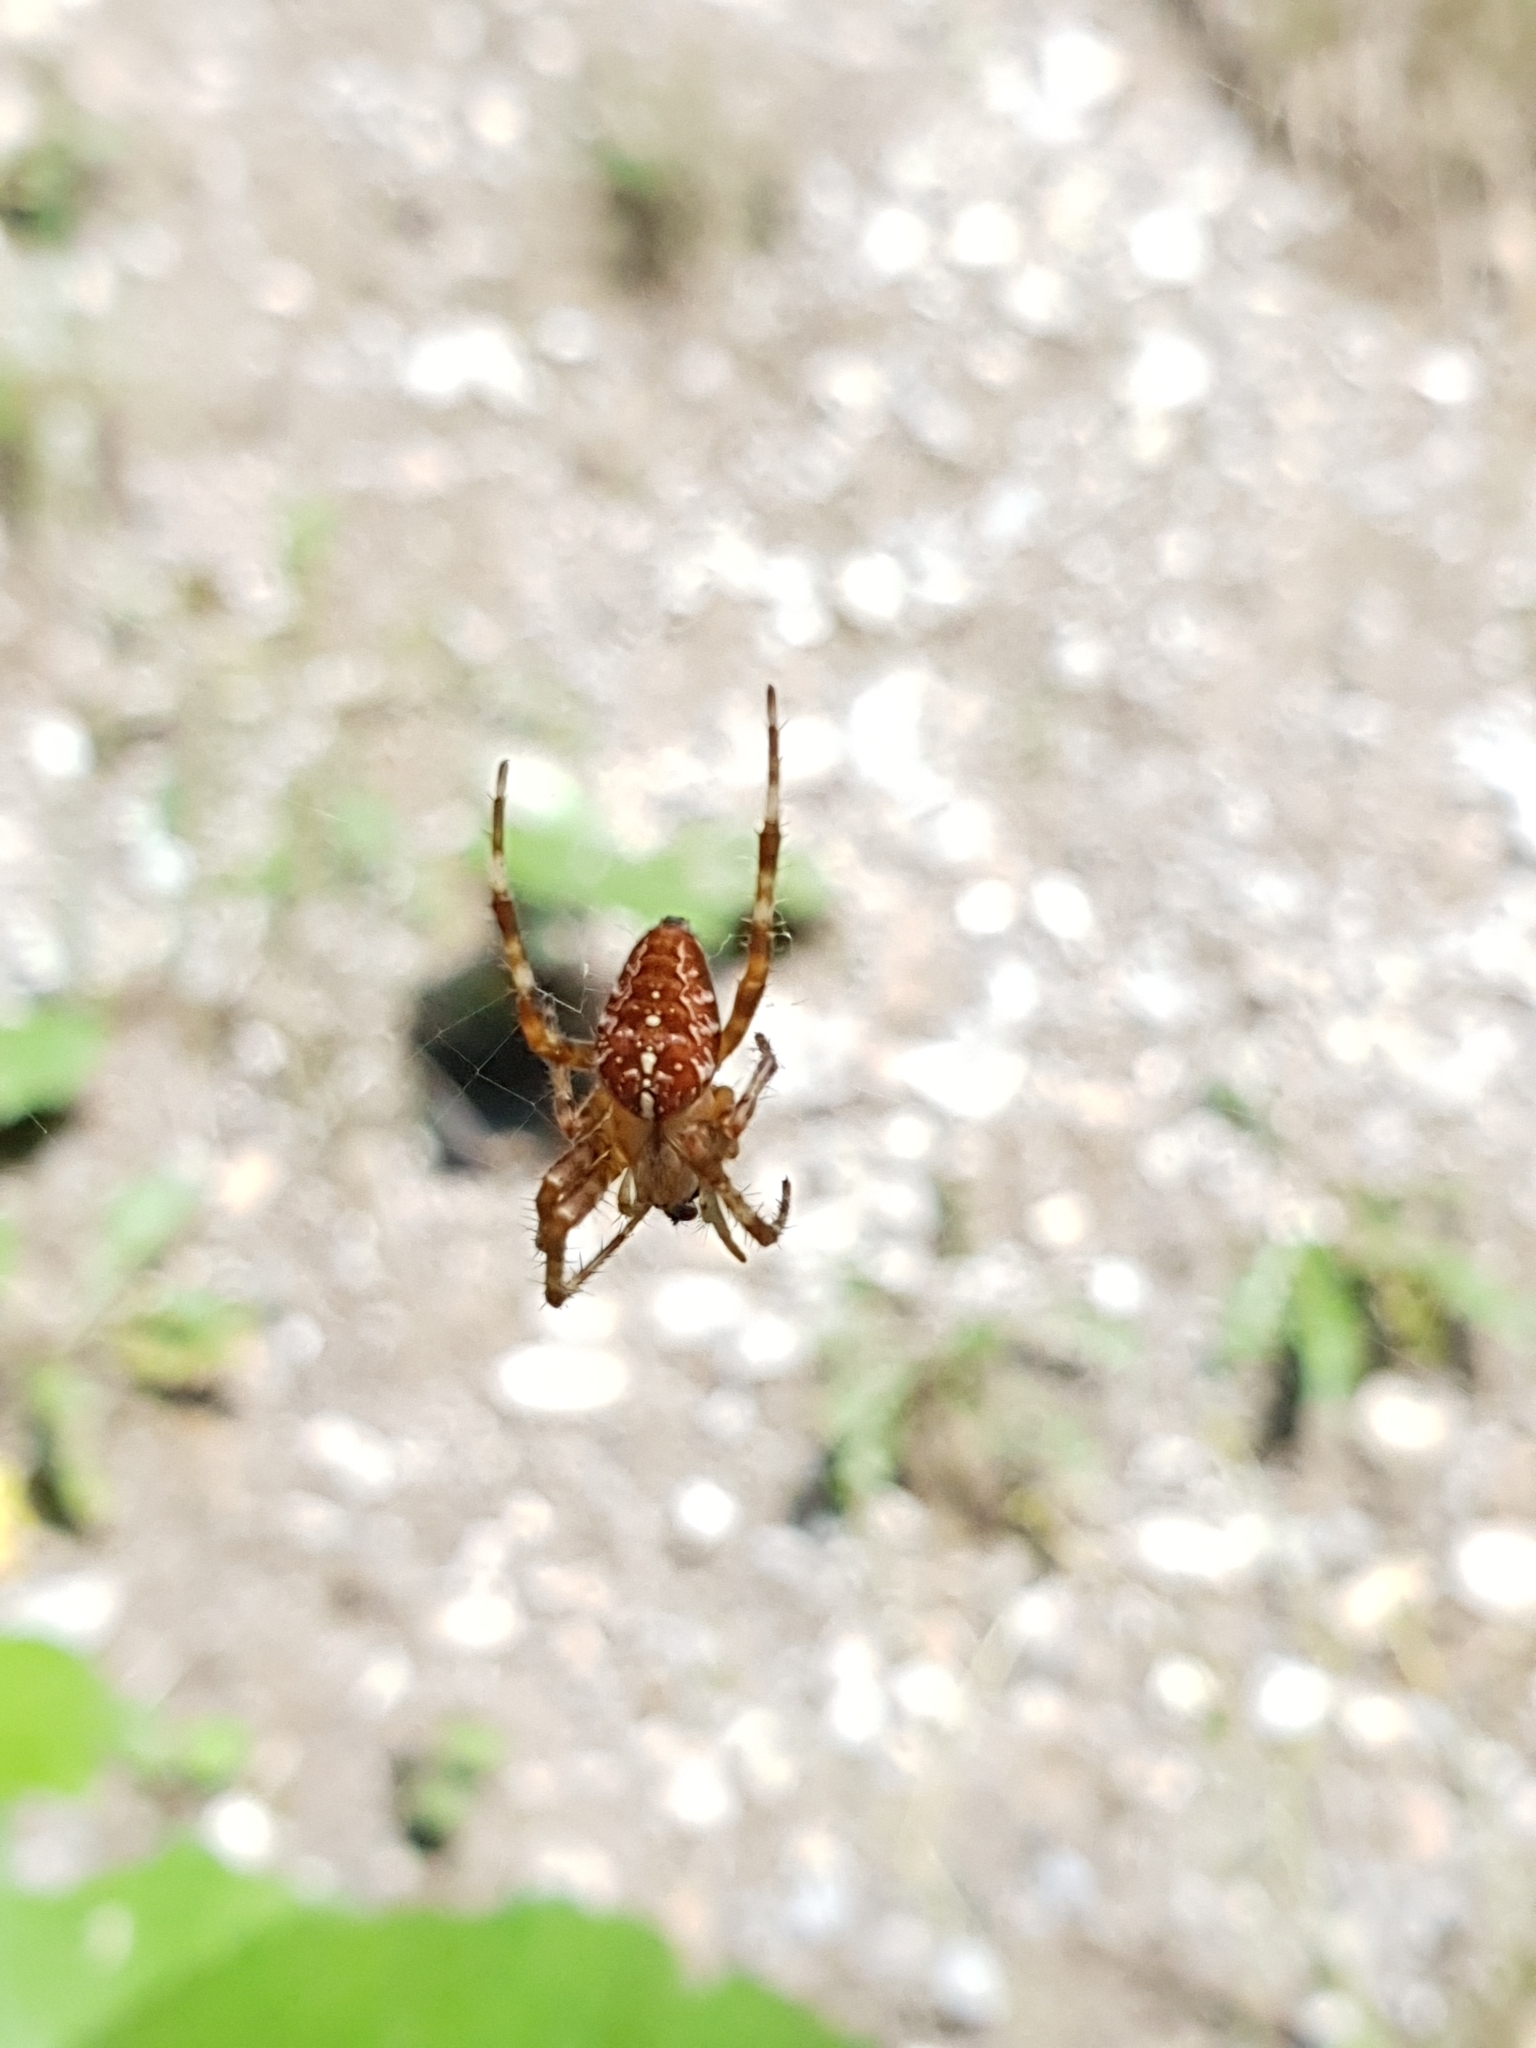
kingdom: Animalia
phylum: Arthropoda
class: Arachnida
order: Araneae
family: Araneidae
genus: Araneus
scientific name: Araneus diadematus
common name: Cross orbweaver
